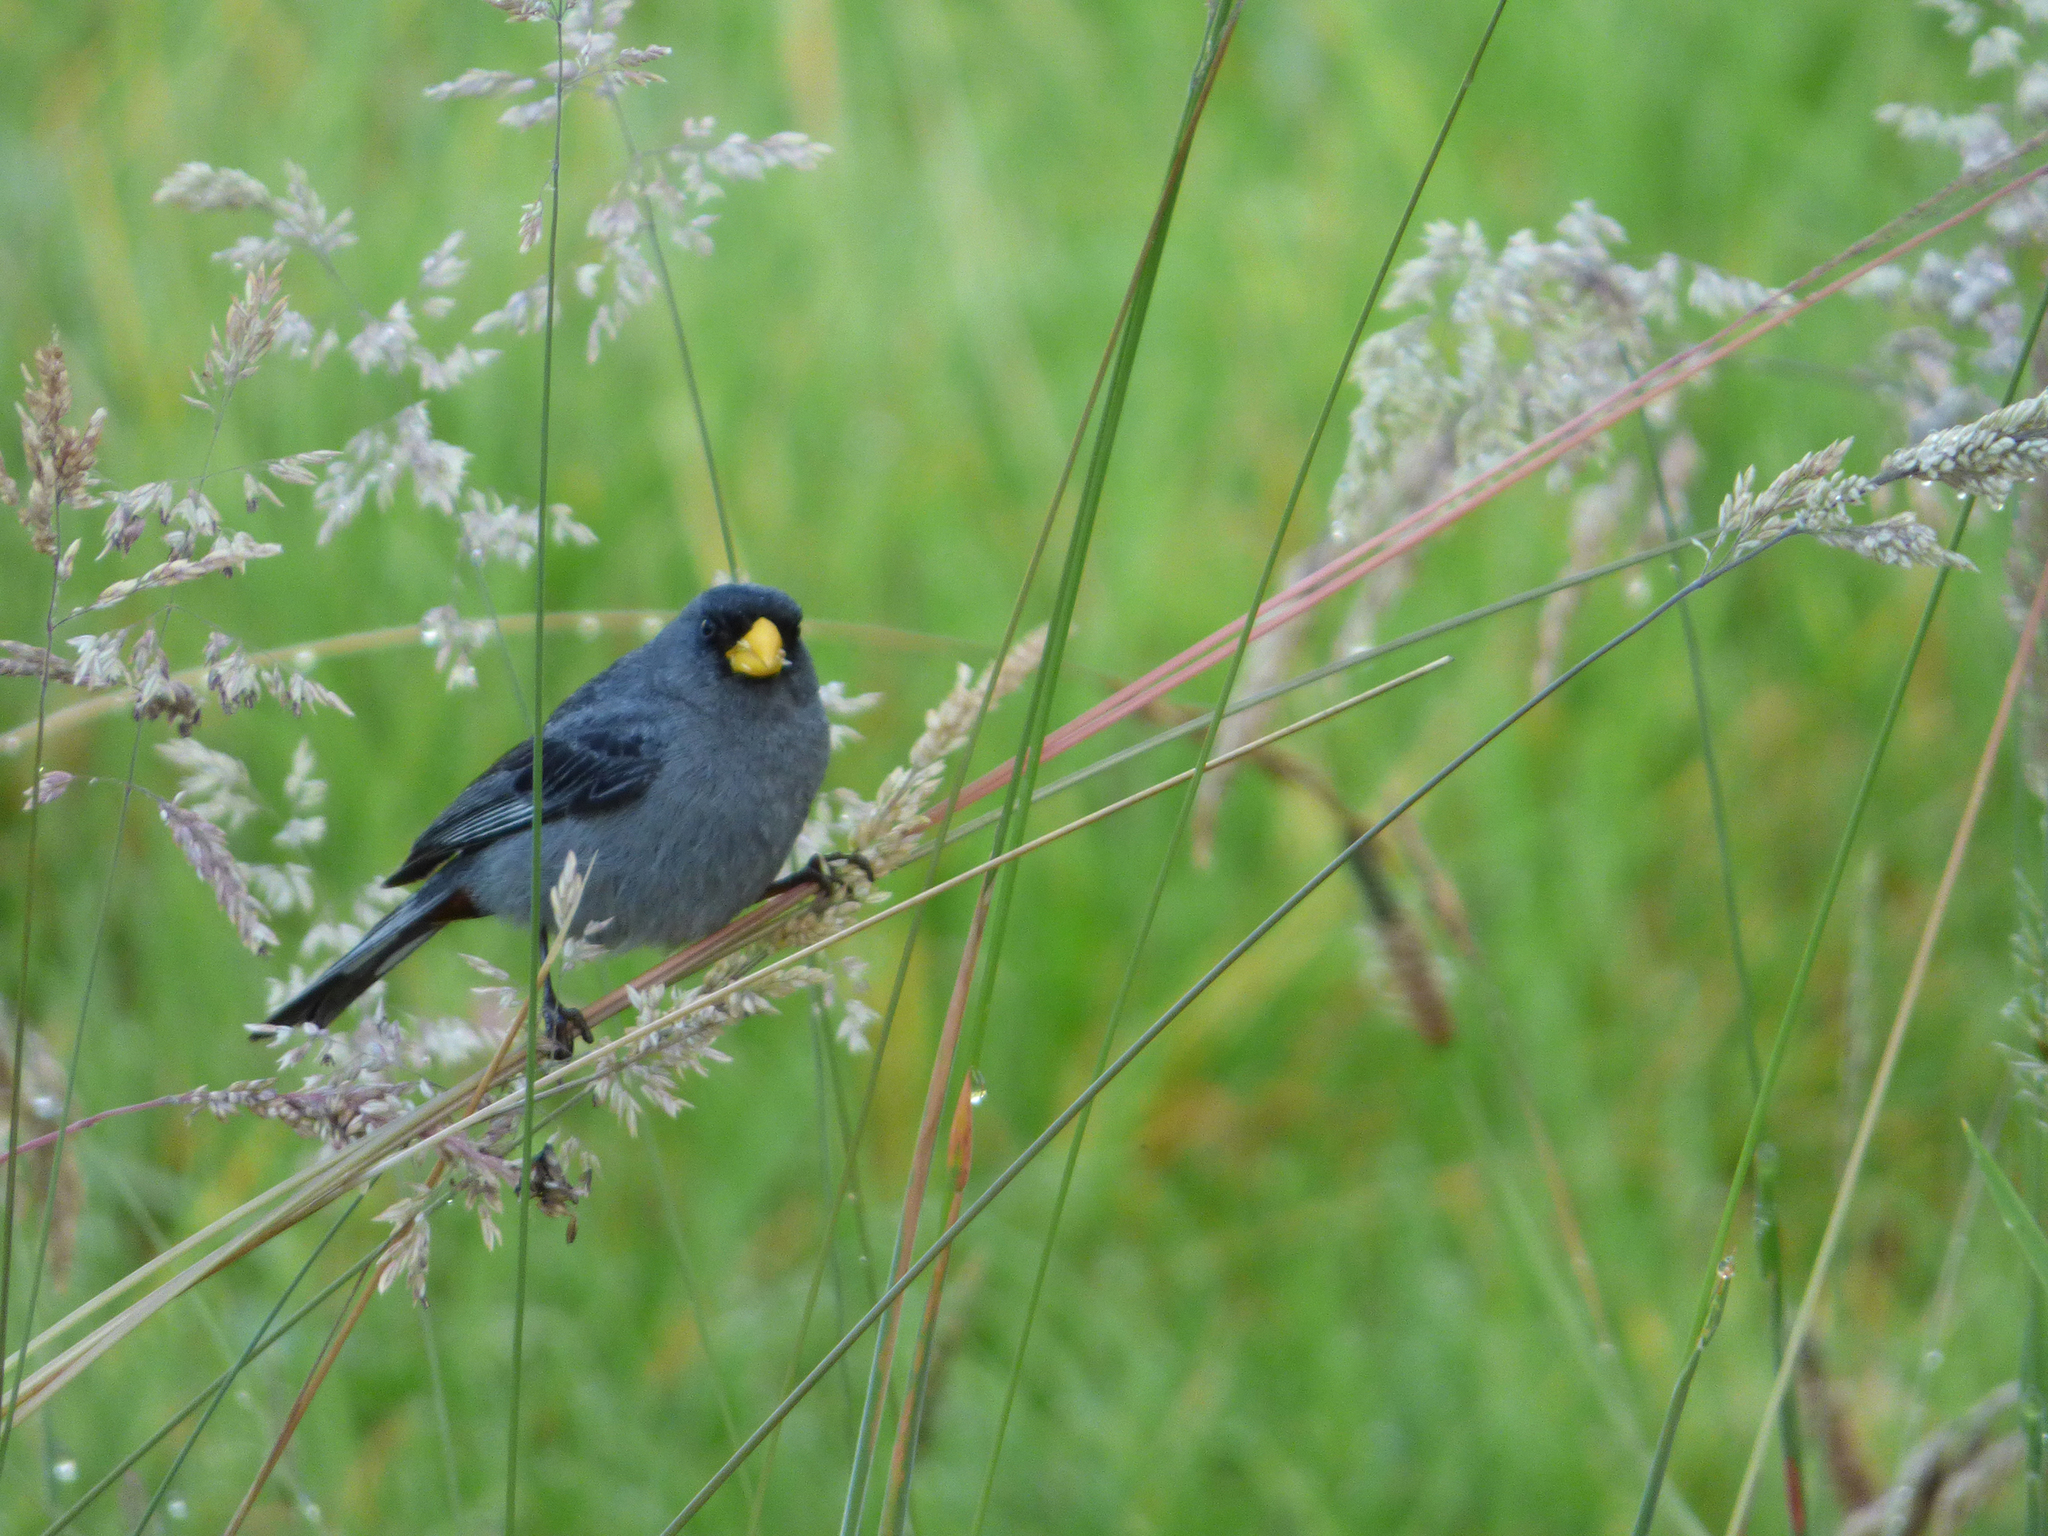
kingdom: Animalia
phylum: Chordata
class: Aves
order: Passeriformes
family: Thraupidae
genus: Catamenia
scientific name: Catamenia analis
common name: Band-tailed seedeater
